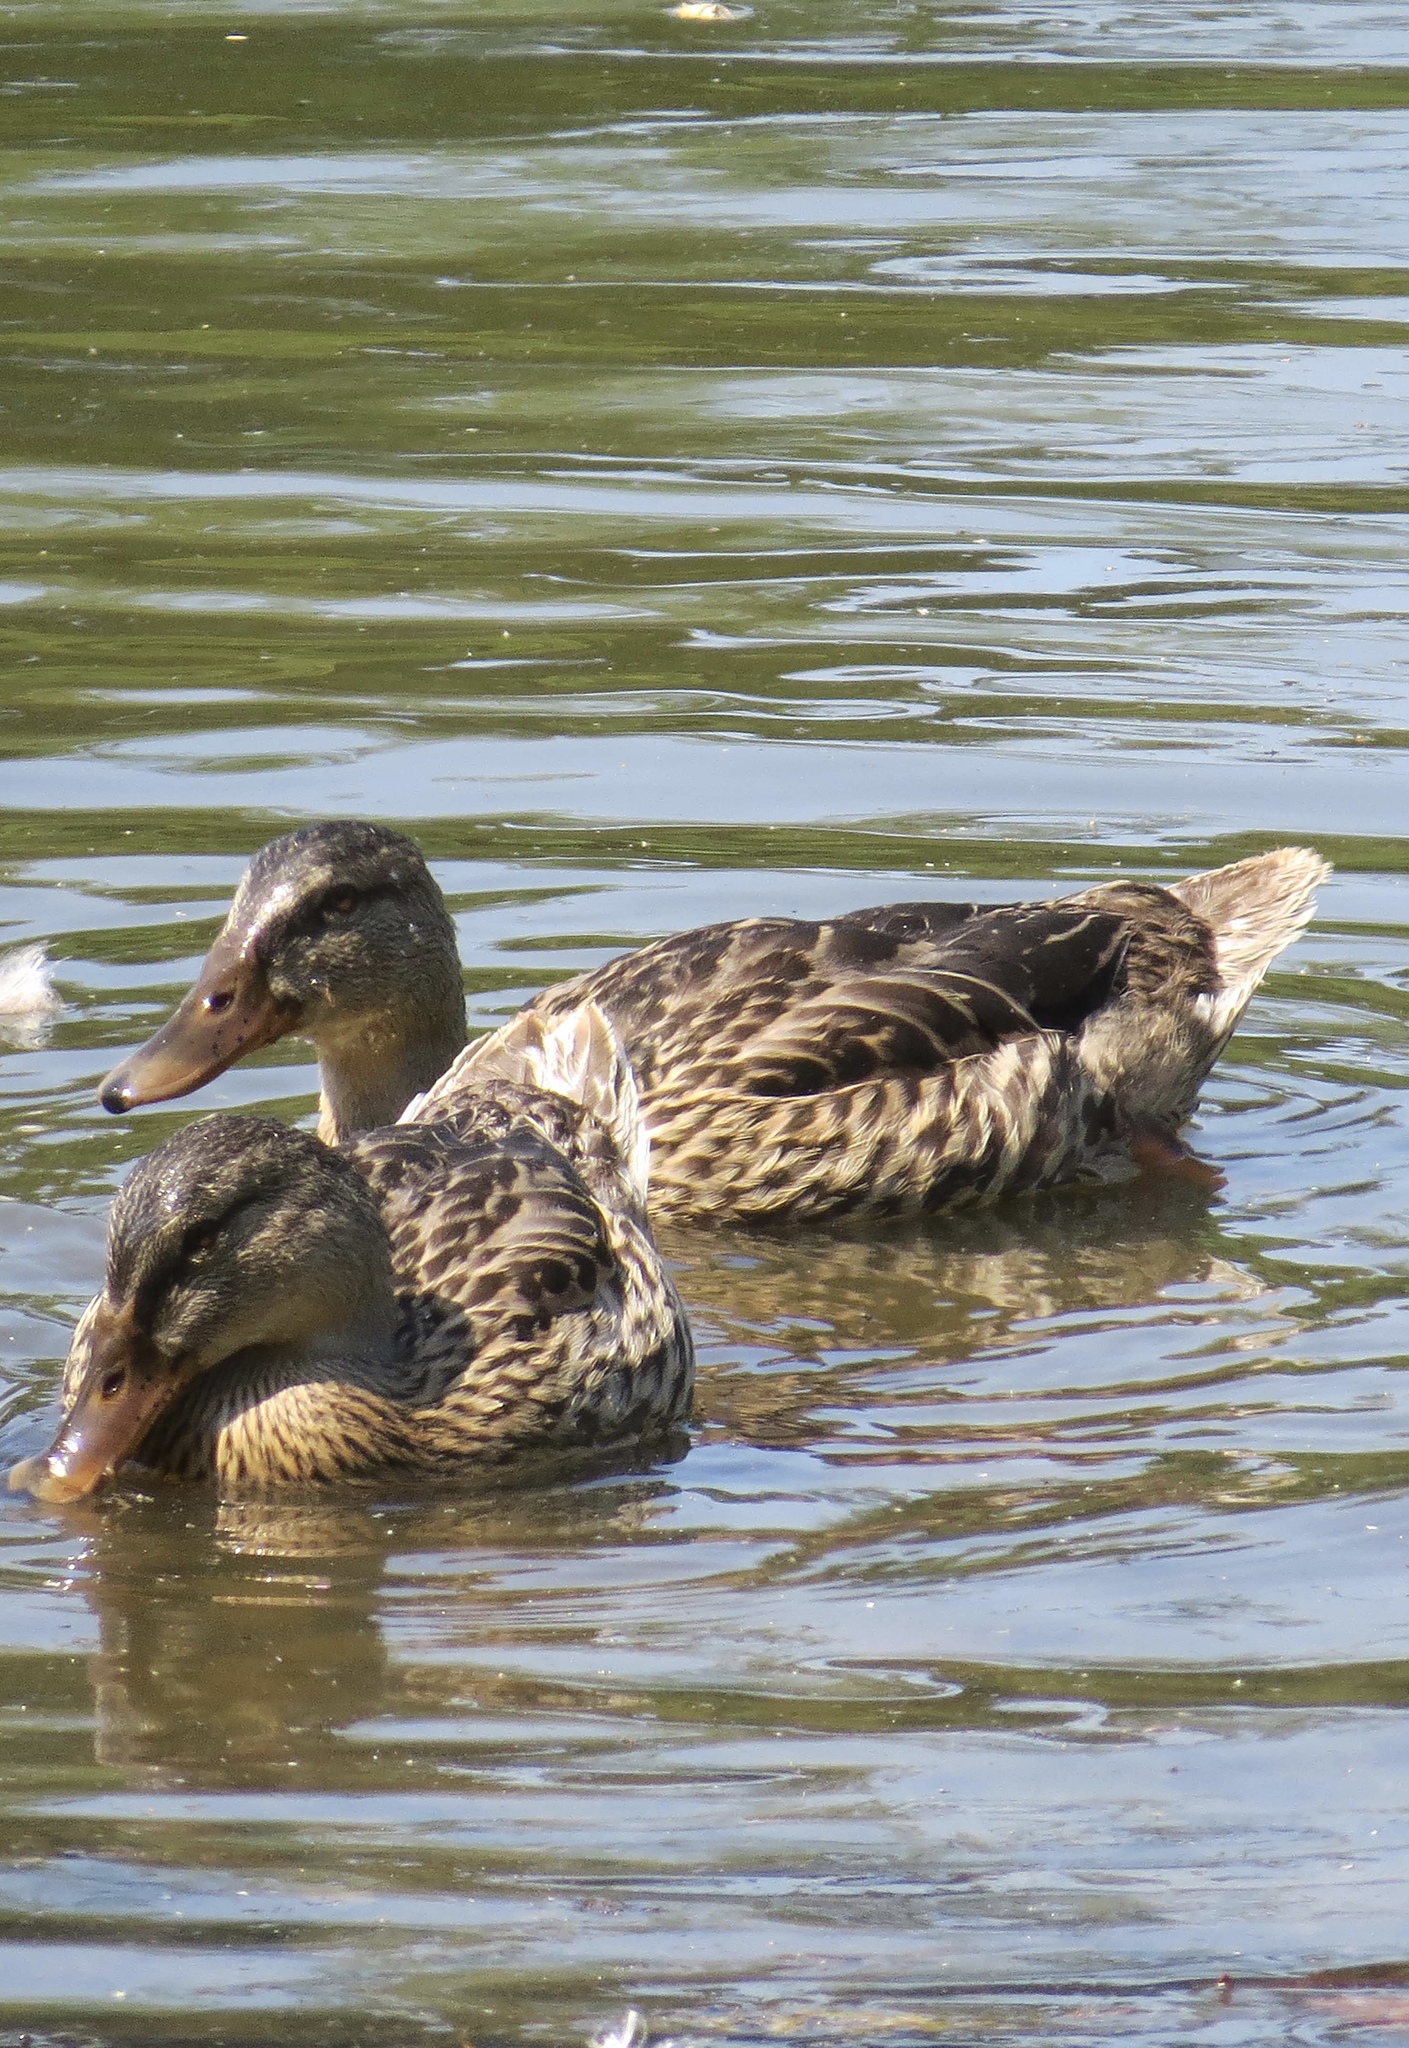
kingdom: Animalia
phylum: Chordata
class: Aves
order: Anseriformes
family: Anatidae
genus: Anas
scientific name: Anas platyrhynchos
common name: Mallard
